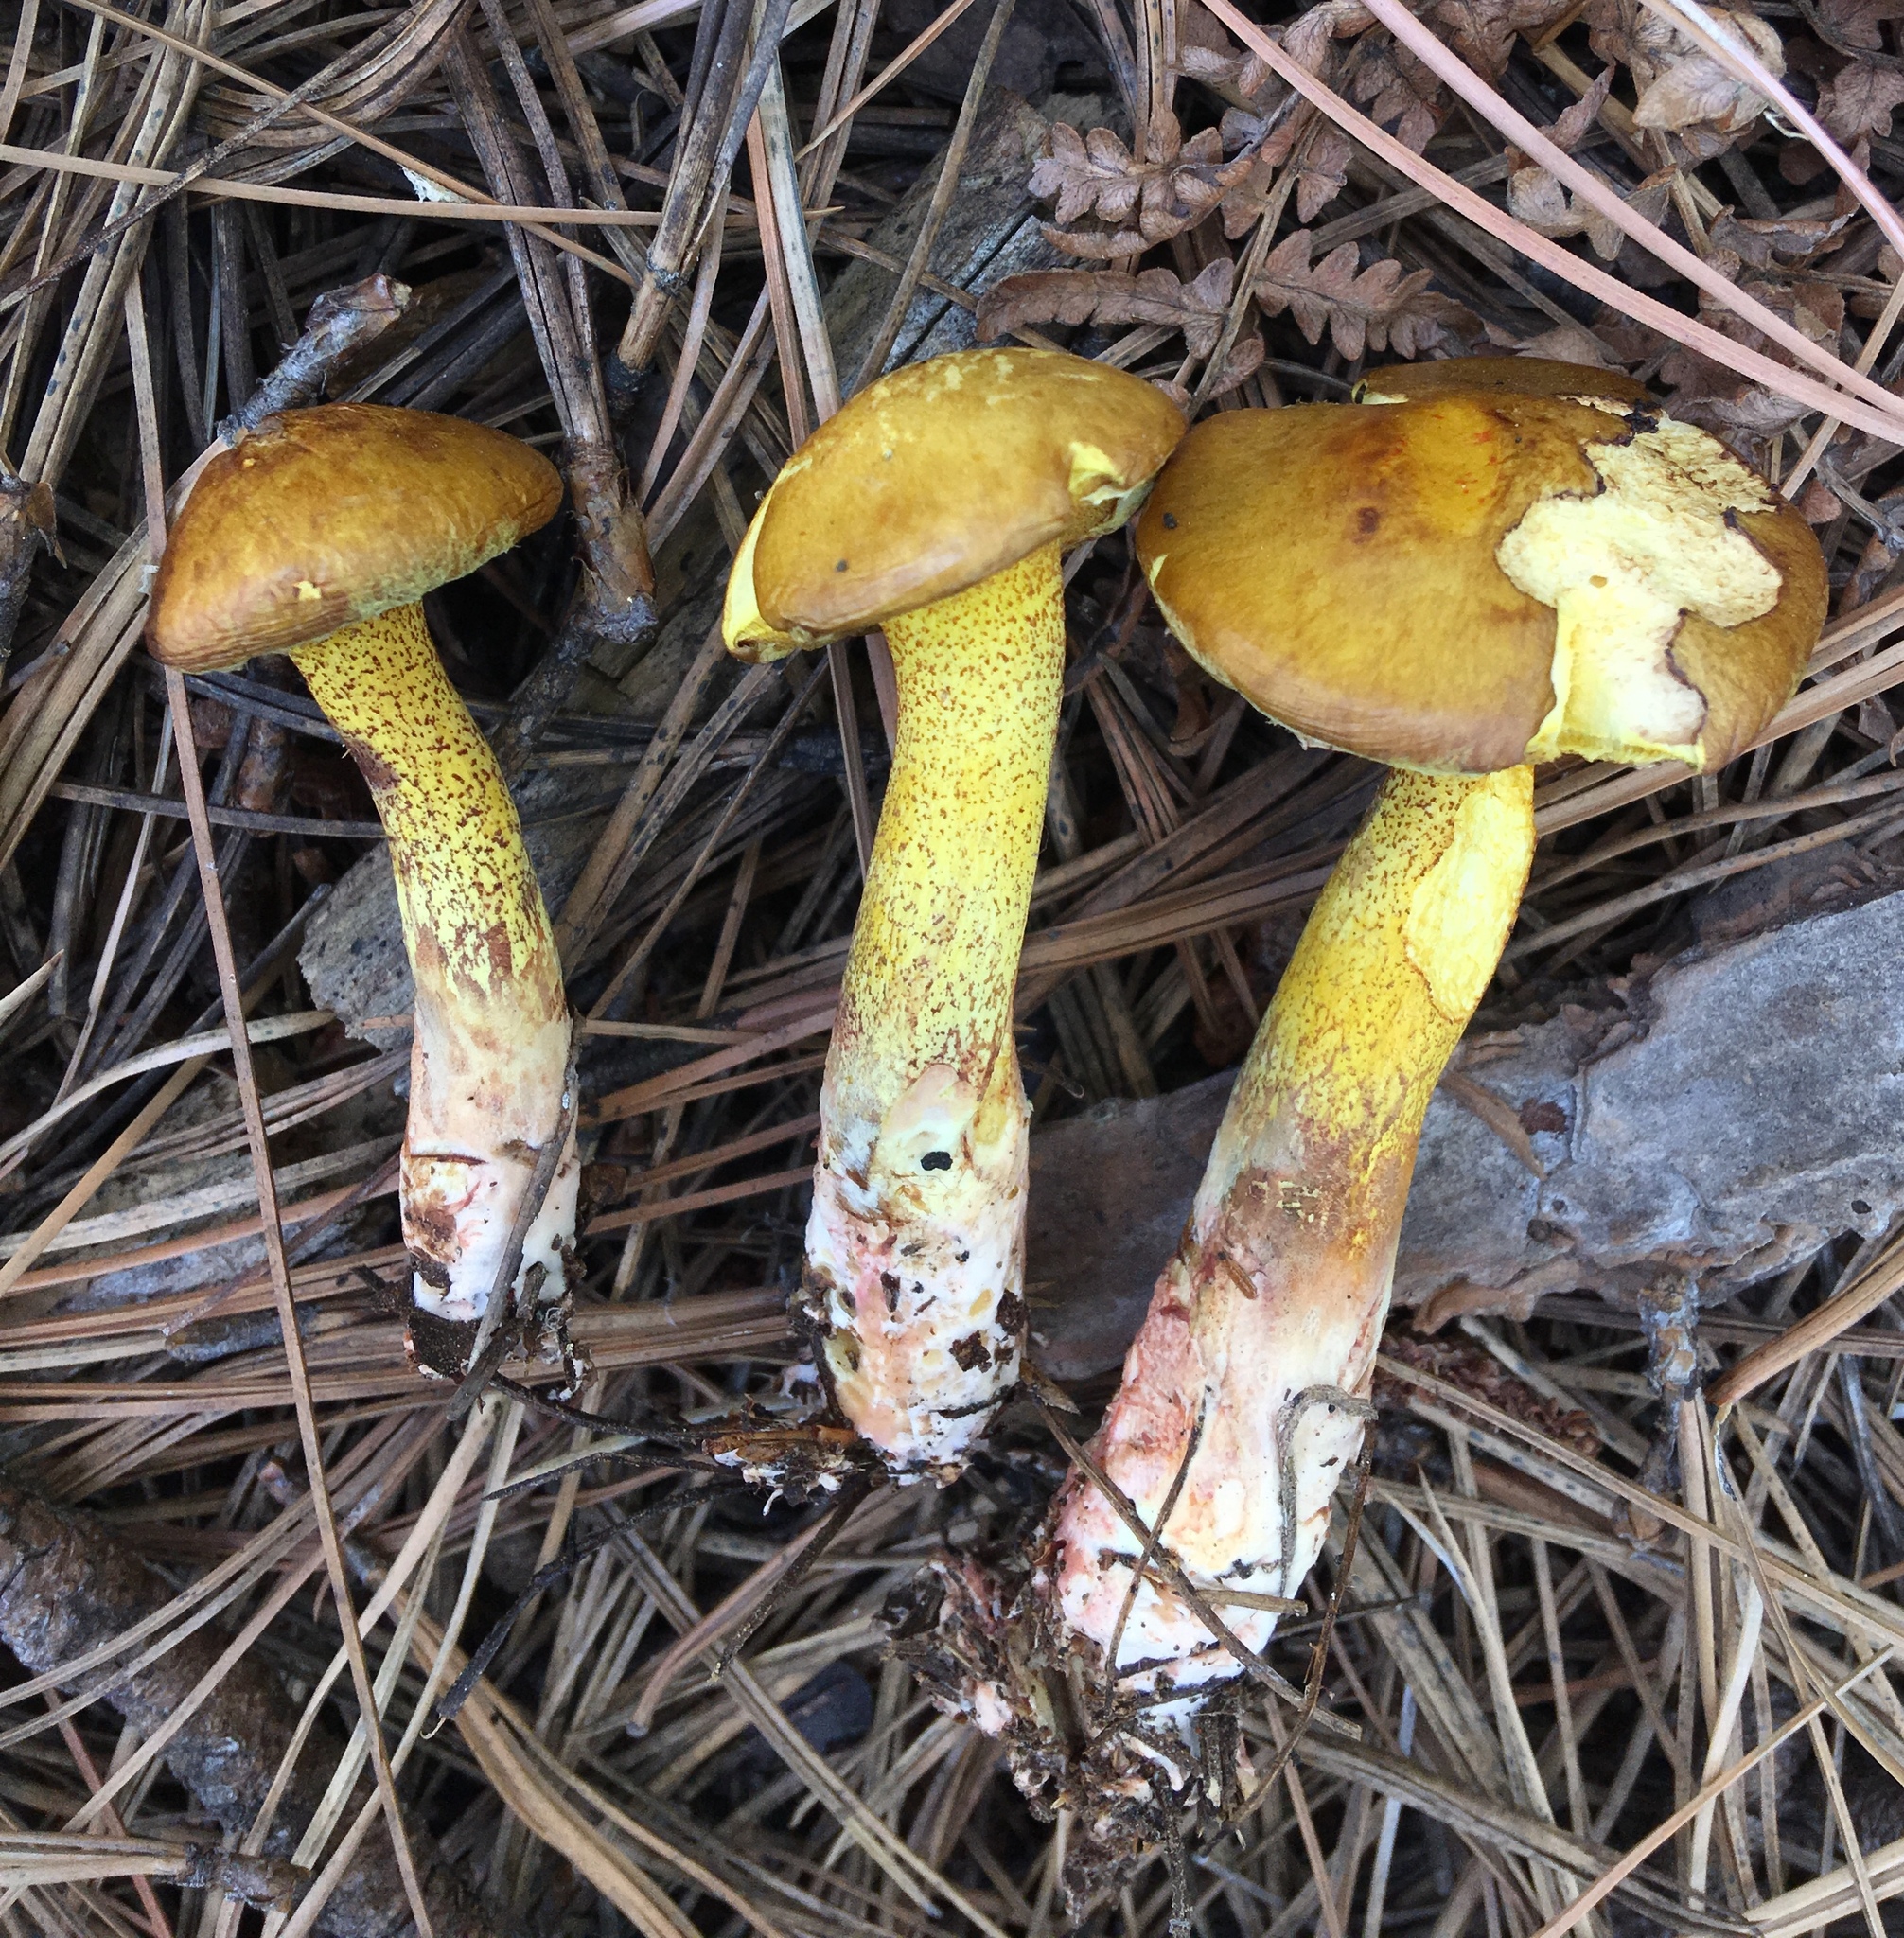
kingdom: Fungi
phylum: Basidiomycota
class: Agaricomycetes
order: Boletales
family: Suillaceae
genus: Suillus
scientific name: Suillus americanus
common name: Chicken fat mushroom
